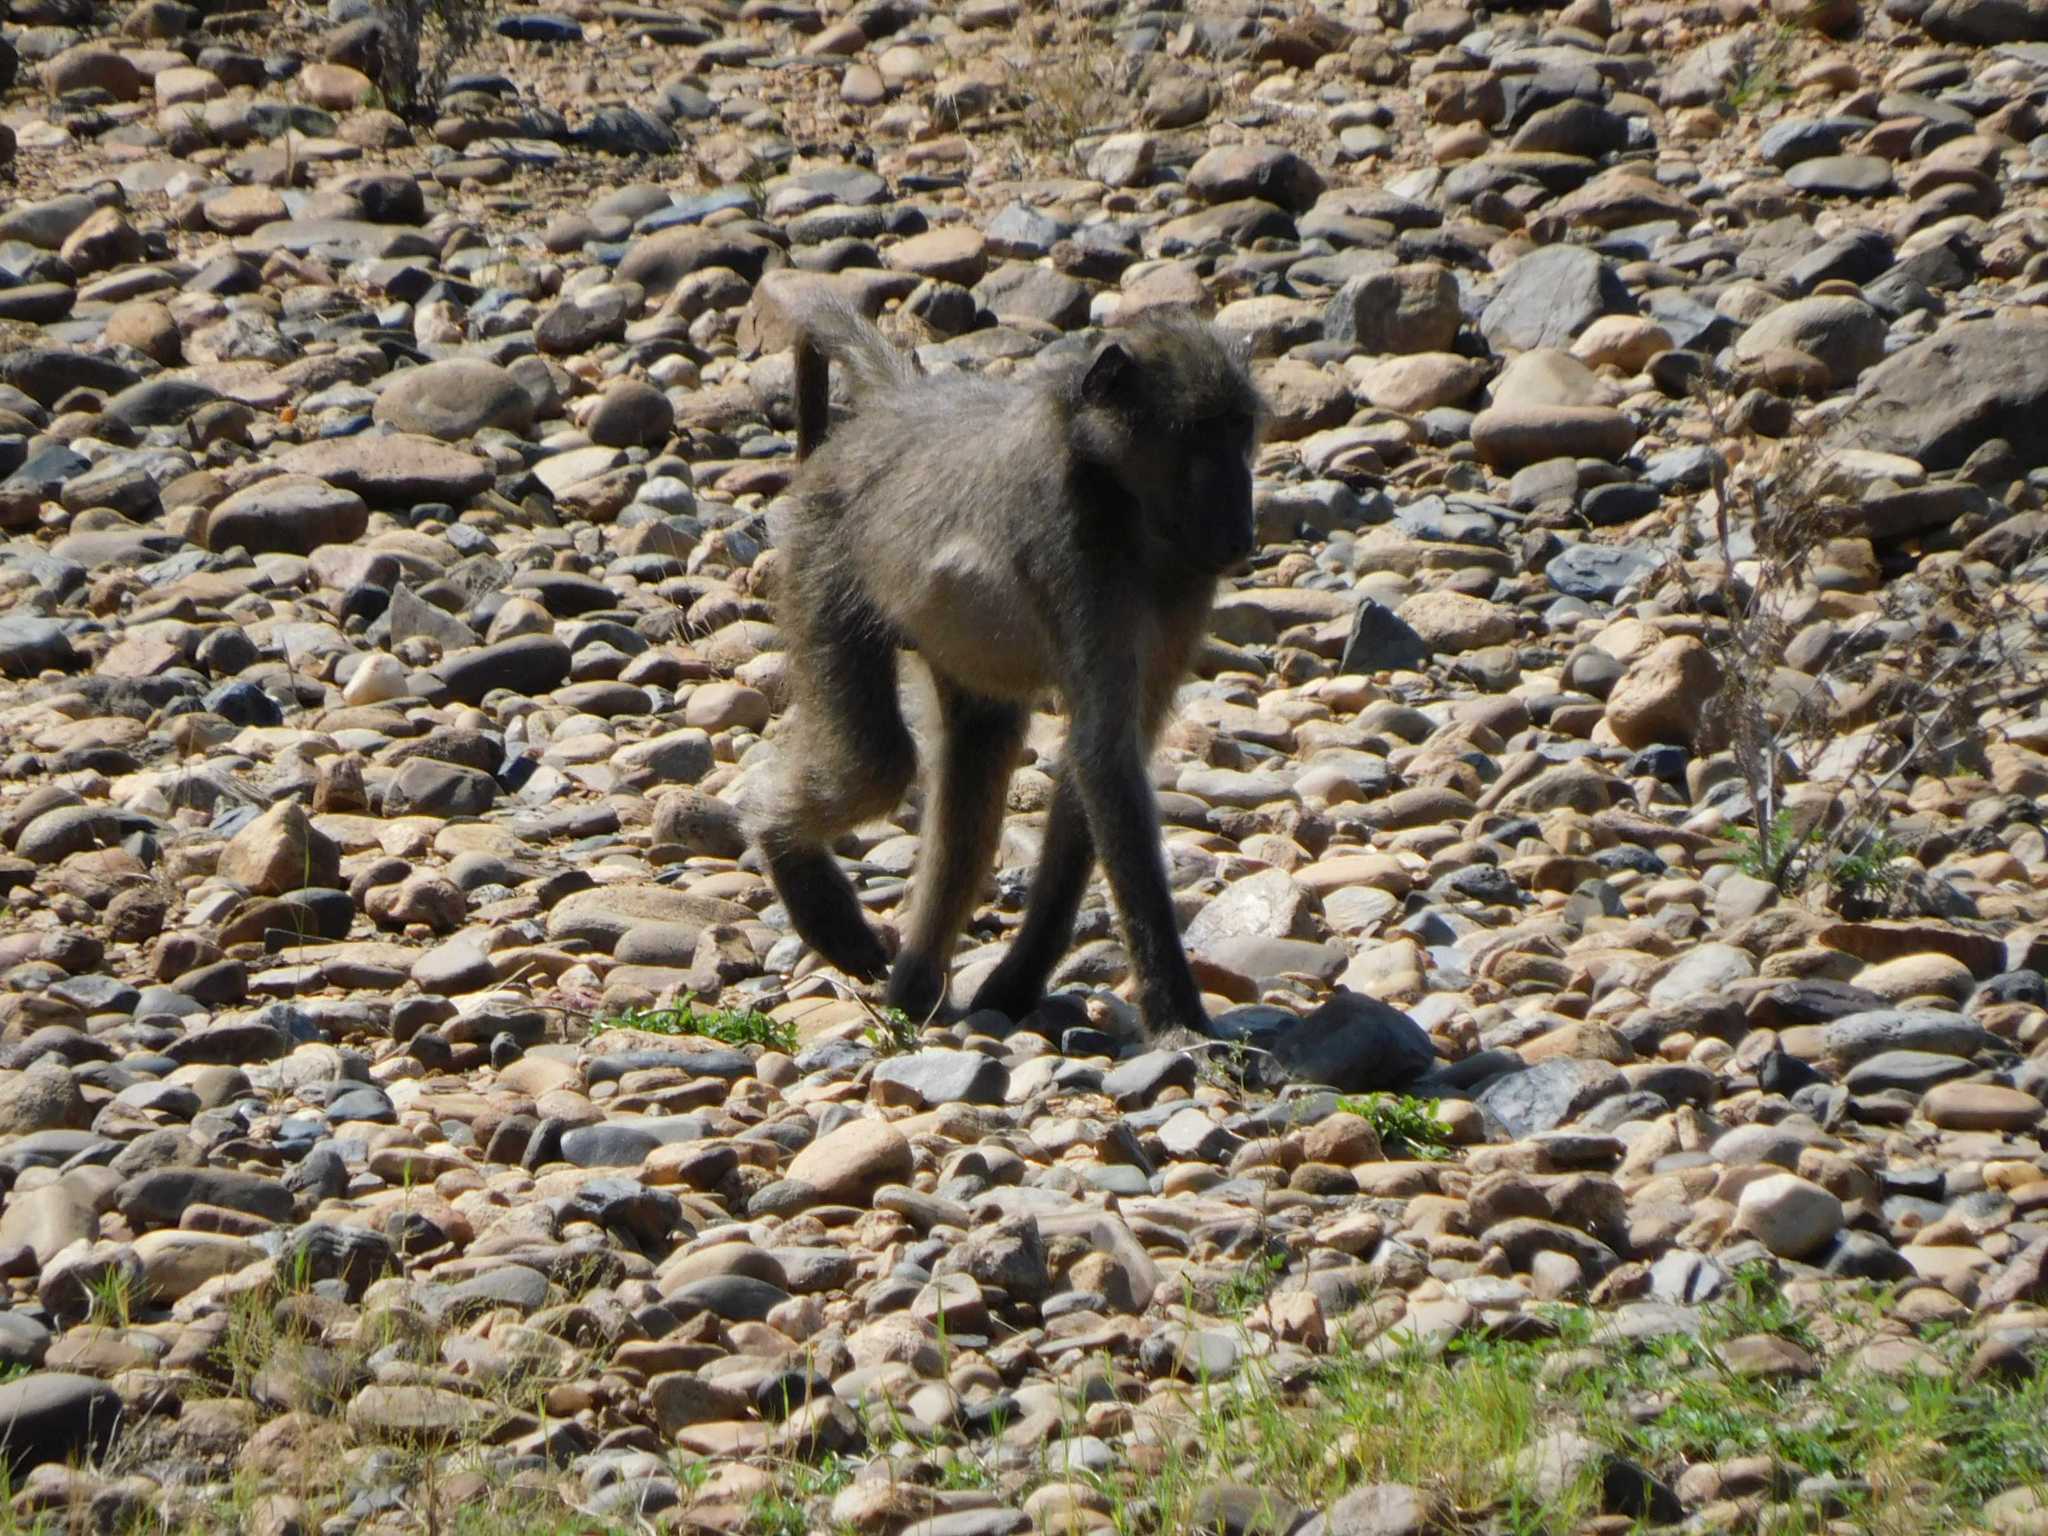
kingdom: Animalia
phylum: Chordata
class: Mammalia
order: Primates
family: Cercopithecidae
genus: Papio
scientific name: Papio ursinus
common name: Chacma baboon
